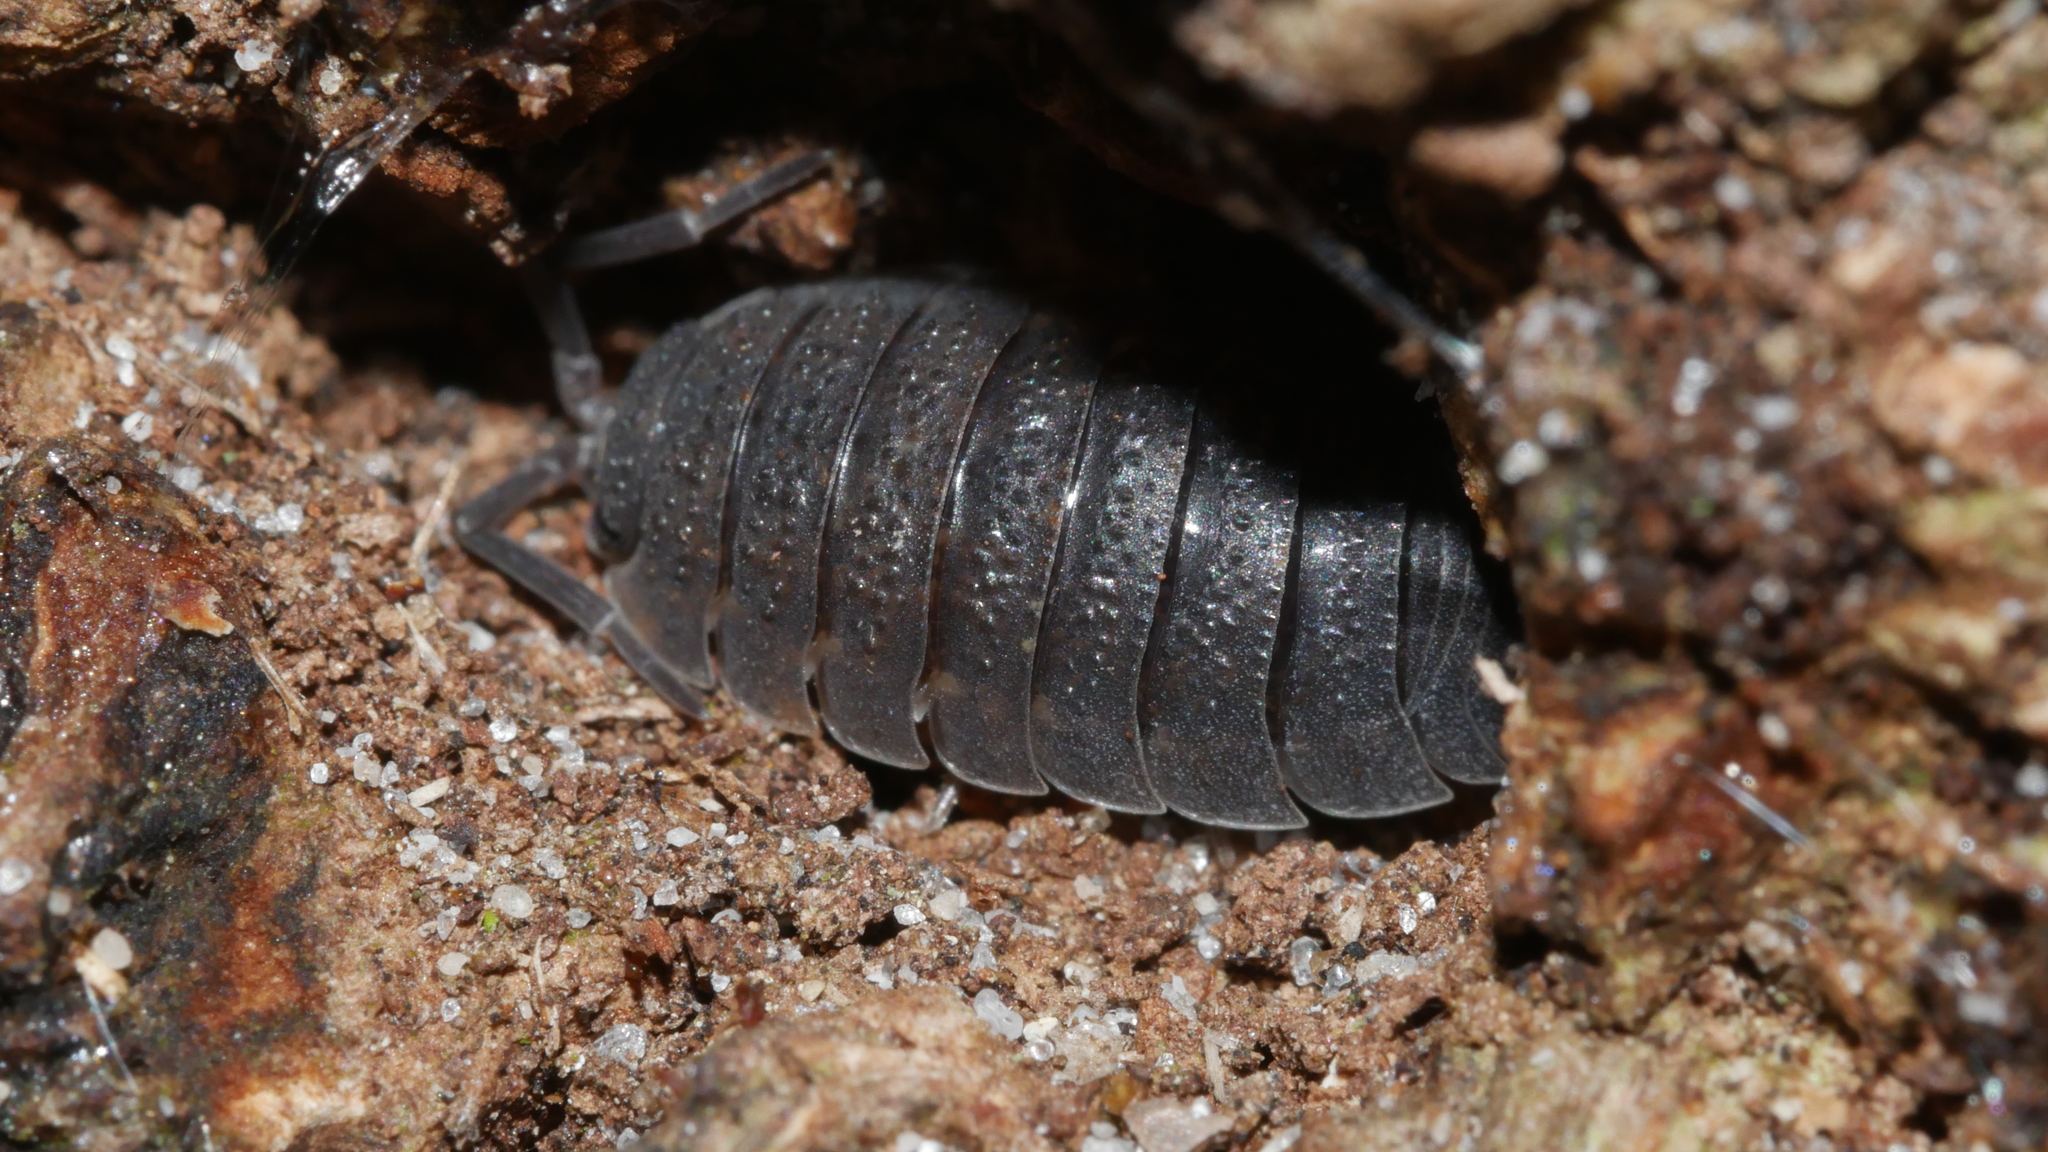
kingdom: Animalia
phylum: Arthropoda
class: Malacostraca
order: Isopoda
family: Porcellionidae
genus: Porcellio
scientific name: Porcellio scaber
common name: Common rough woodlouse
